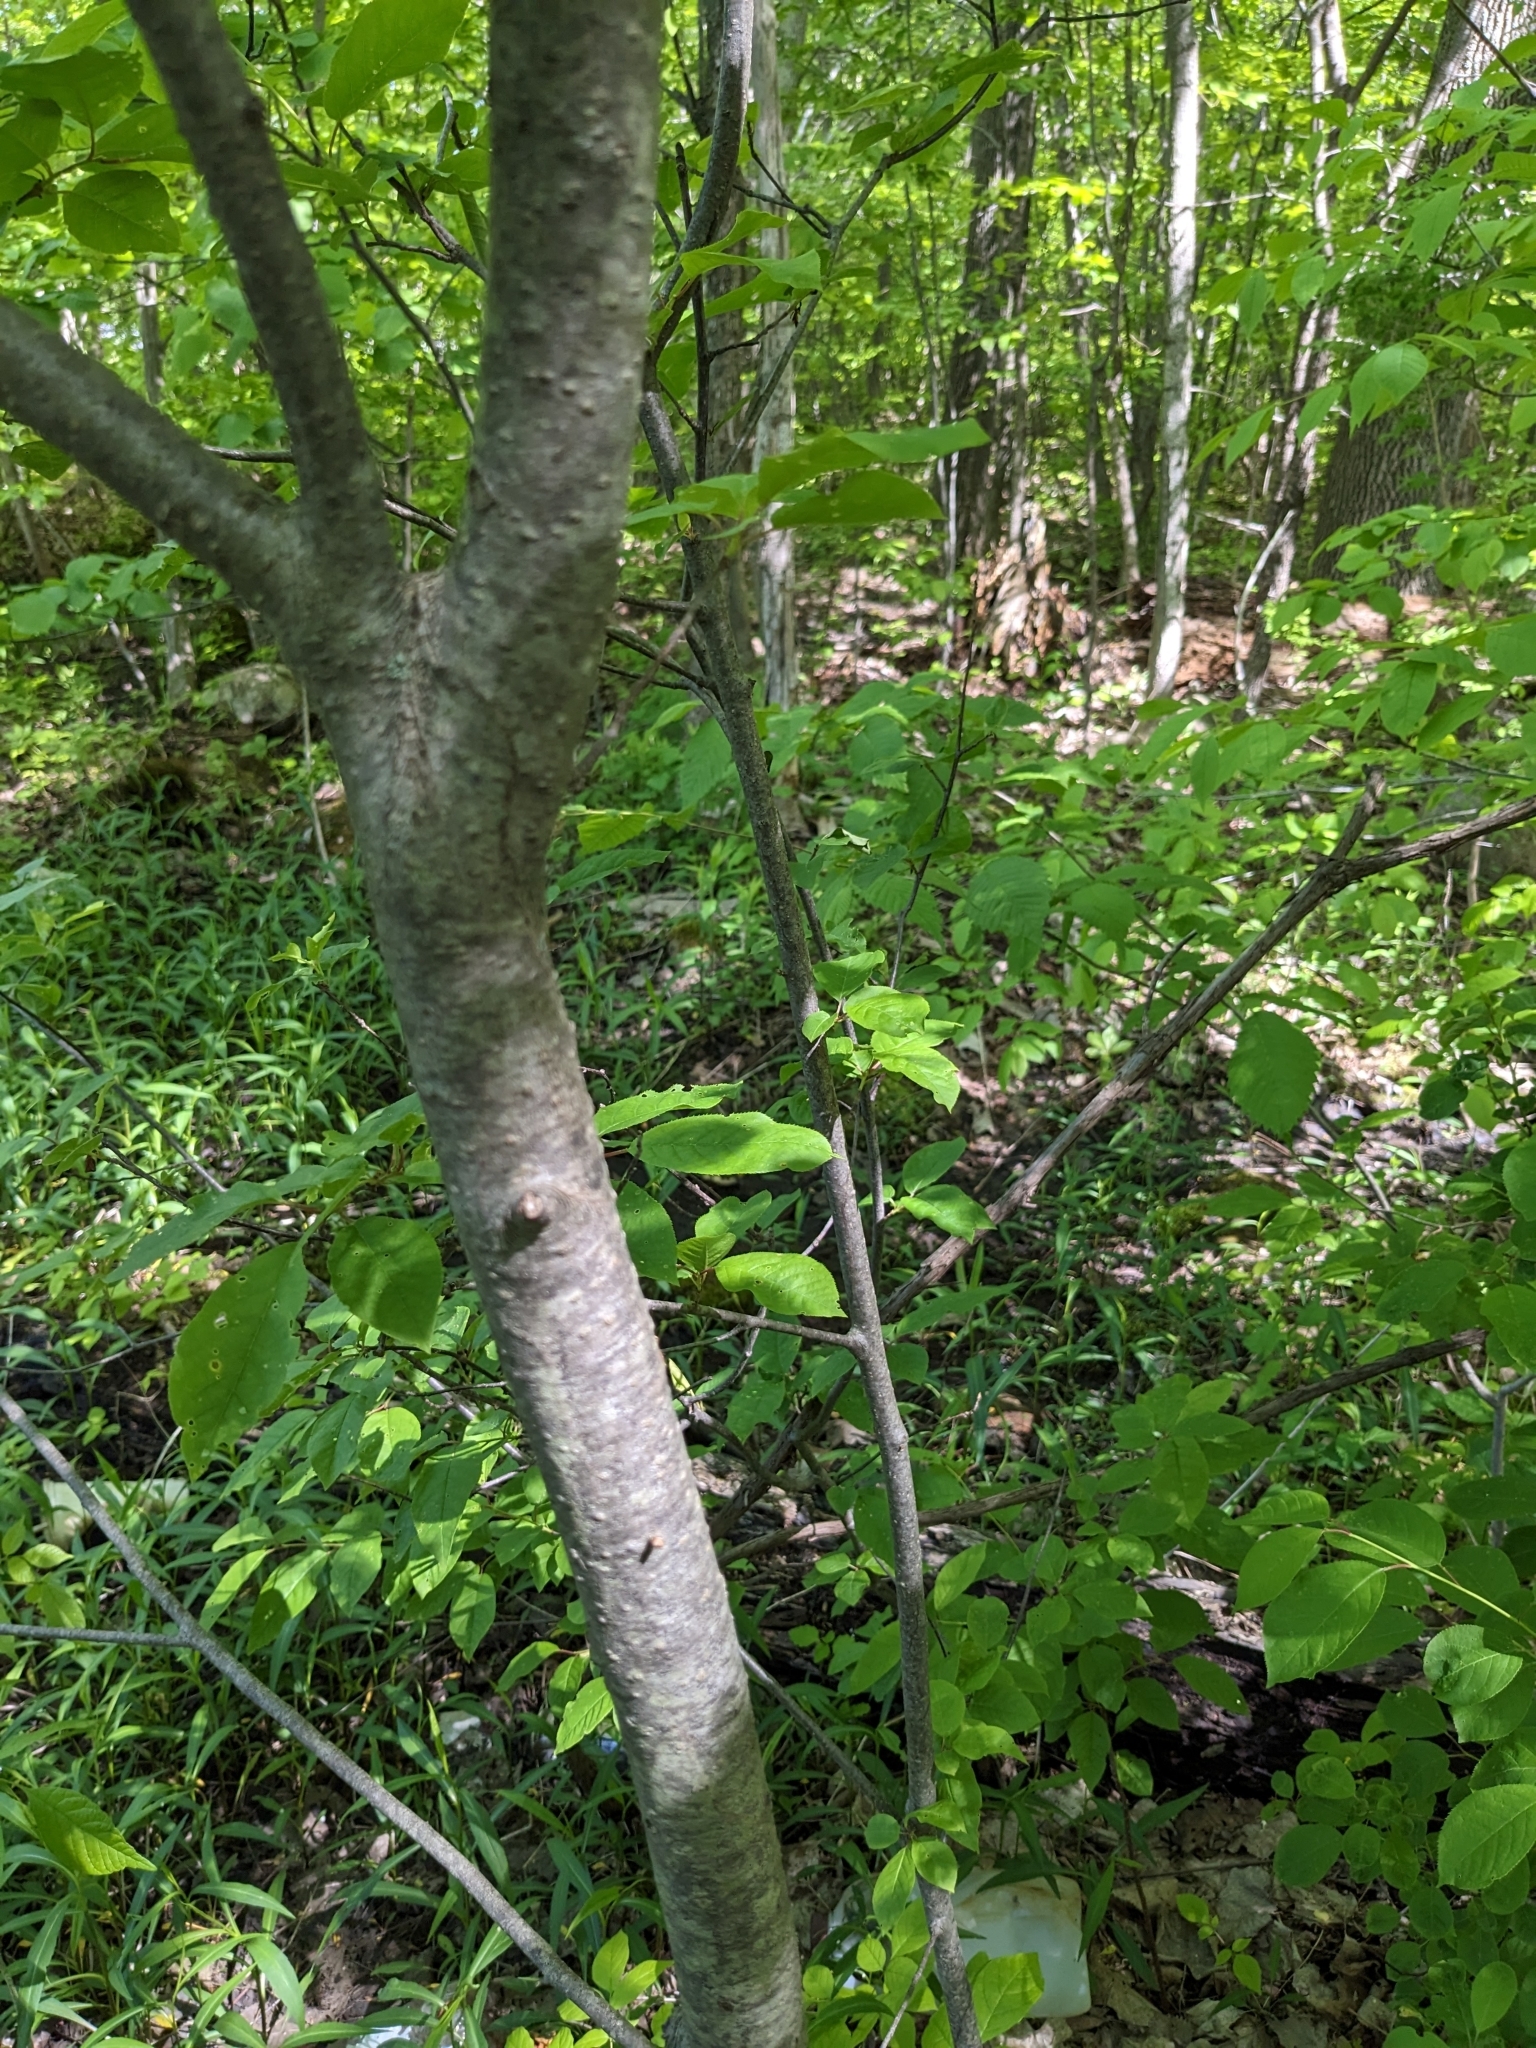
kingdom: Plantae
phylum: Tracheophyta
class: Magnoliopsida
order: Rosales
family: Rosaceae
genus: Prunus
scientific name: Prunus virginiana
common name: Chokecherry
